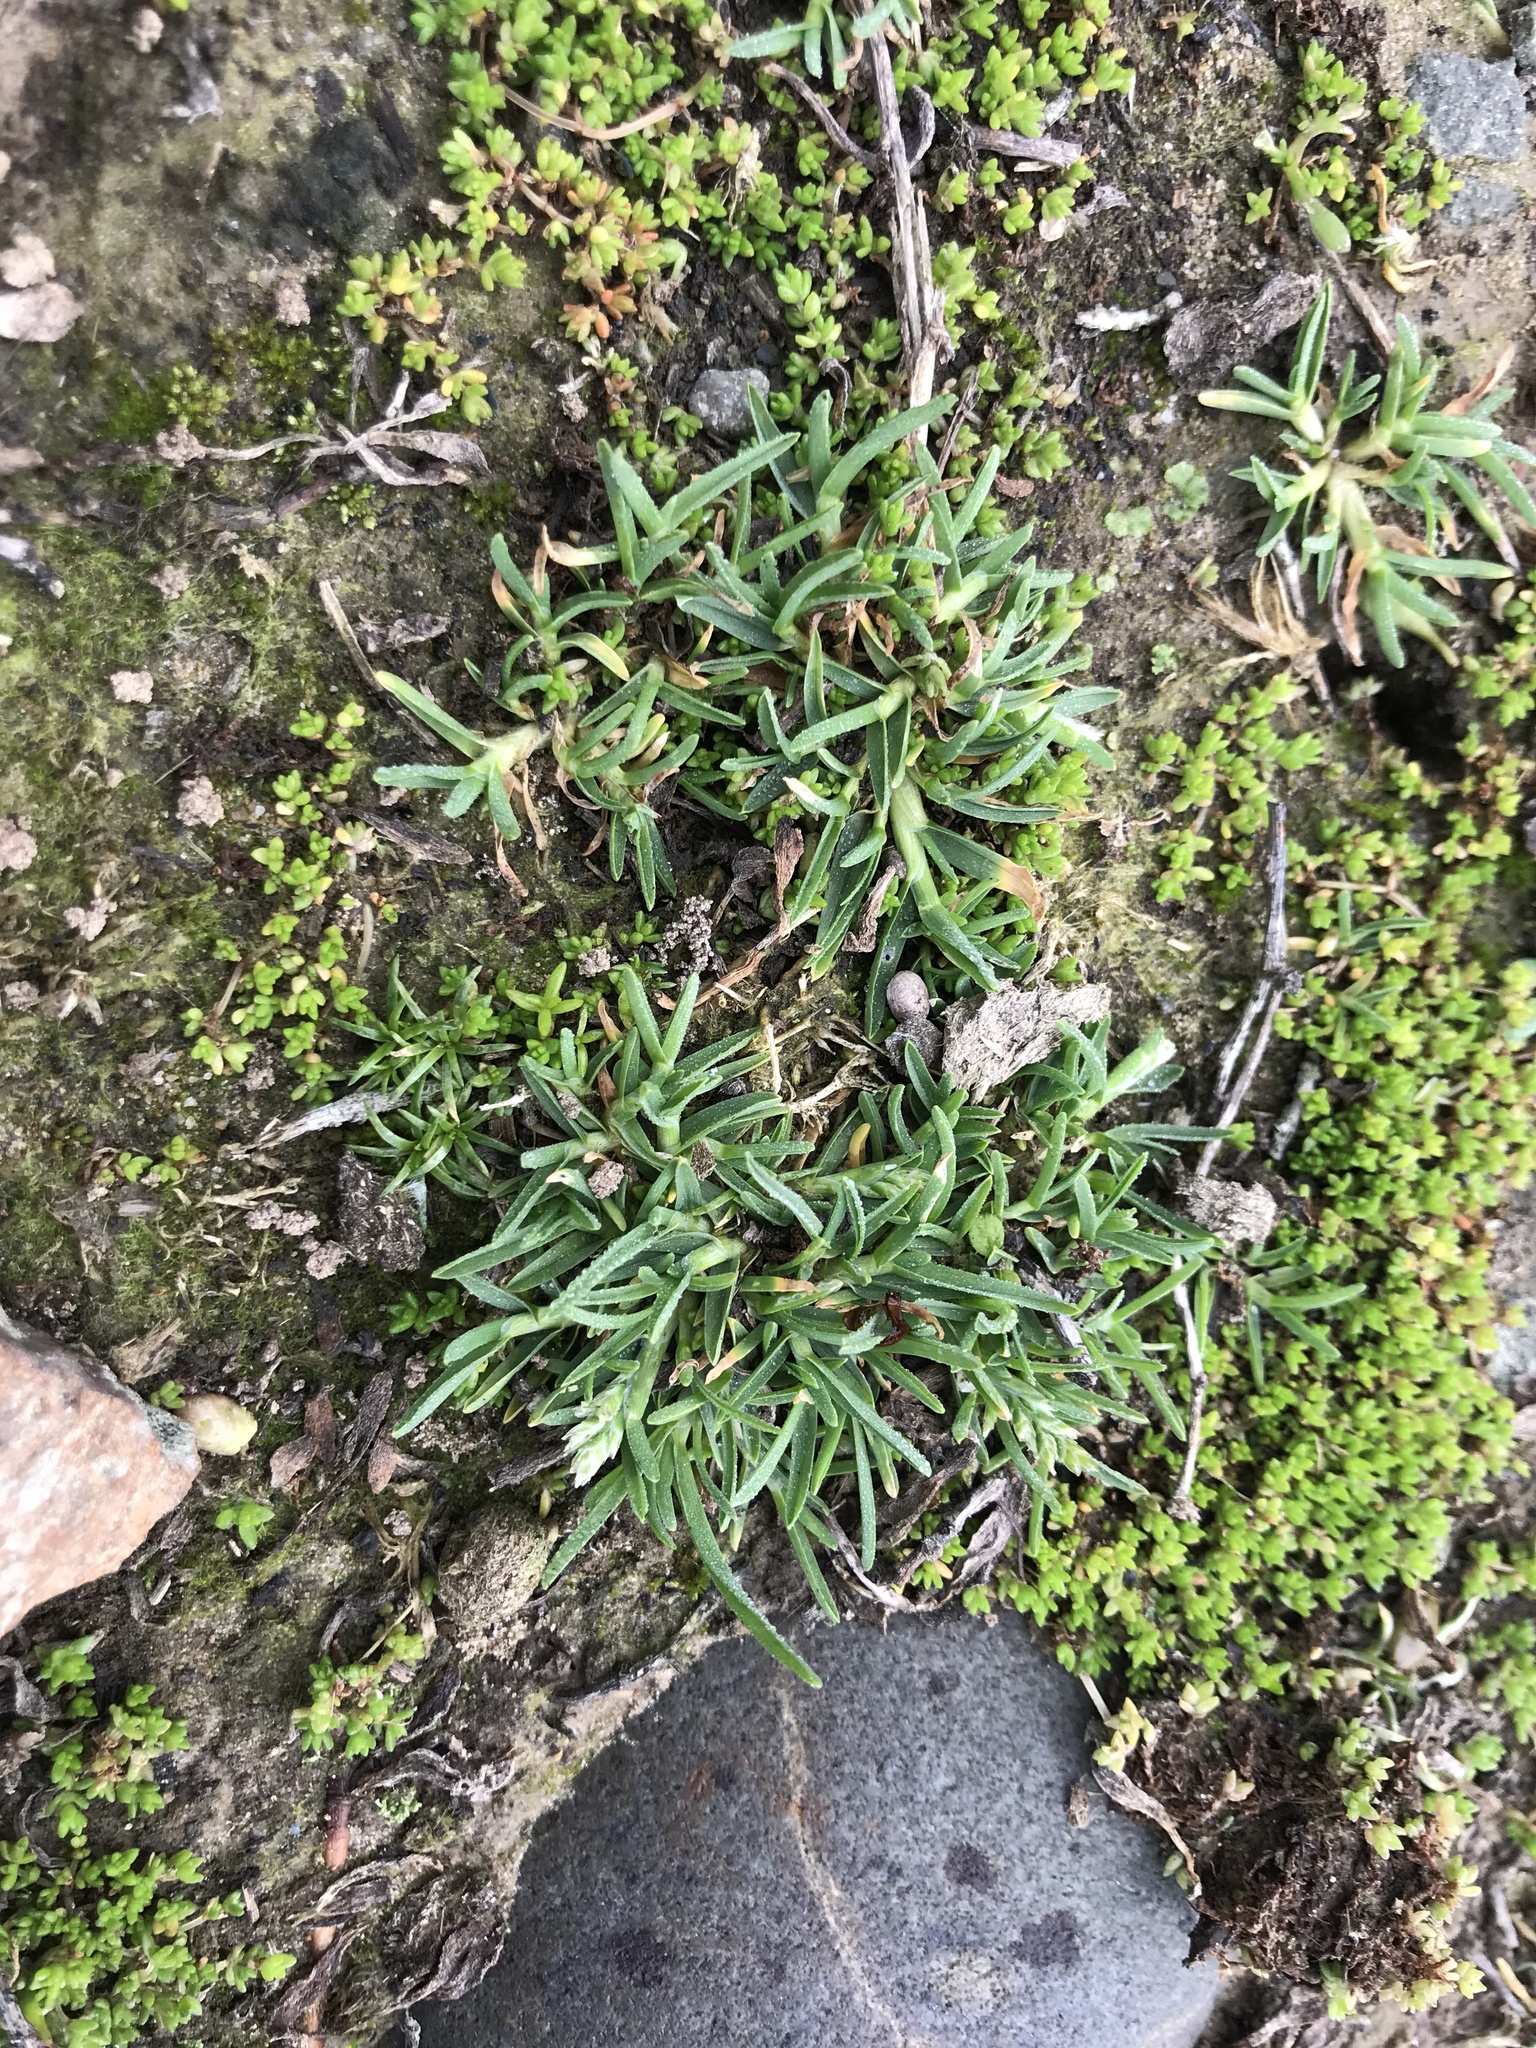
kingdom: Plantae
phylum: Tracheophyta
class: Liliopsida
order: Poales
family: Poaceae
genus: Stenotaphrum
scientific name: Stenotaphrum secundatum
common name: St. augustine grass
